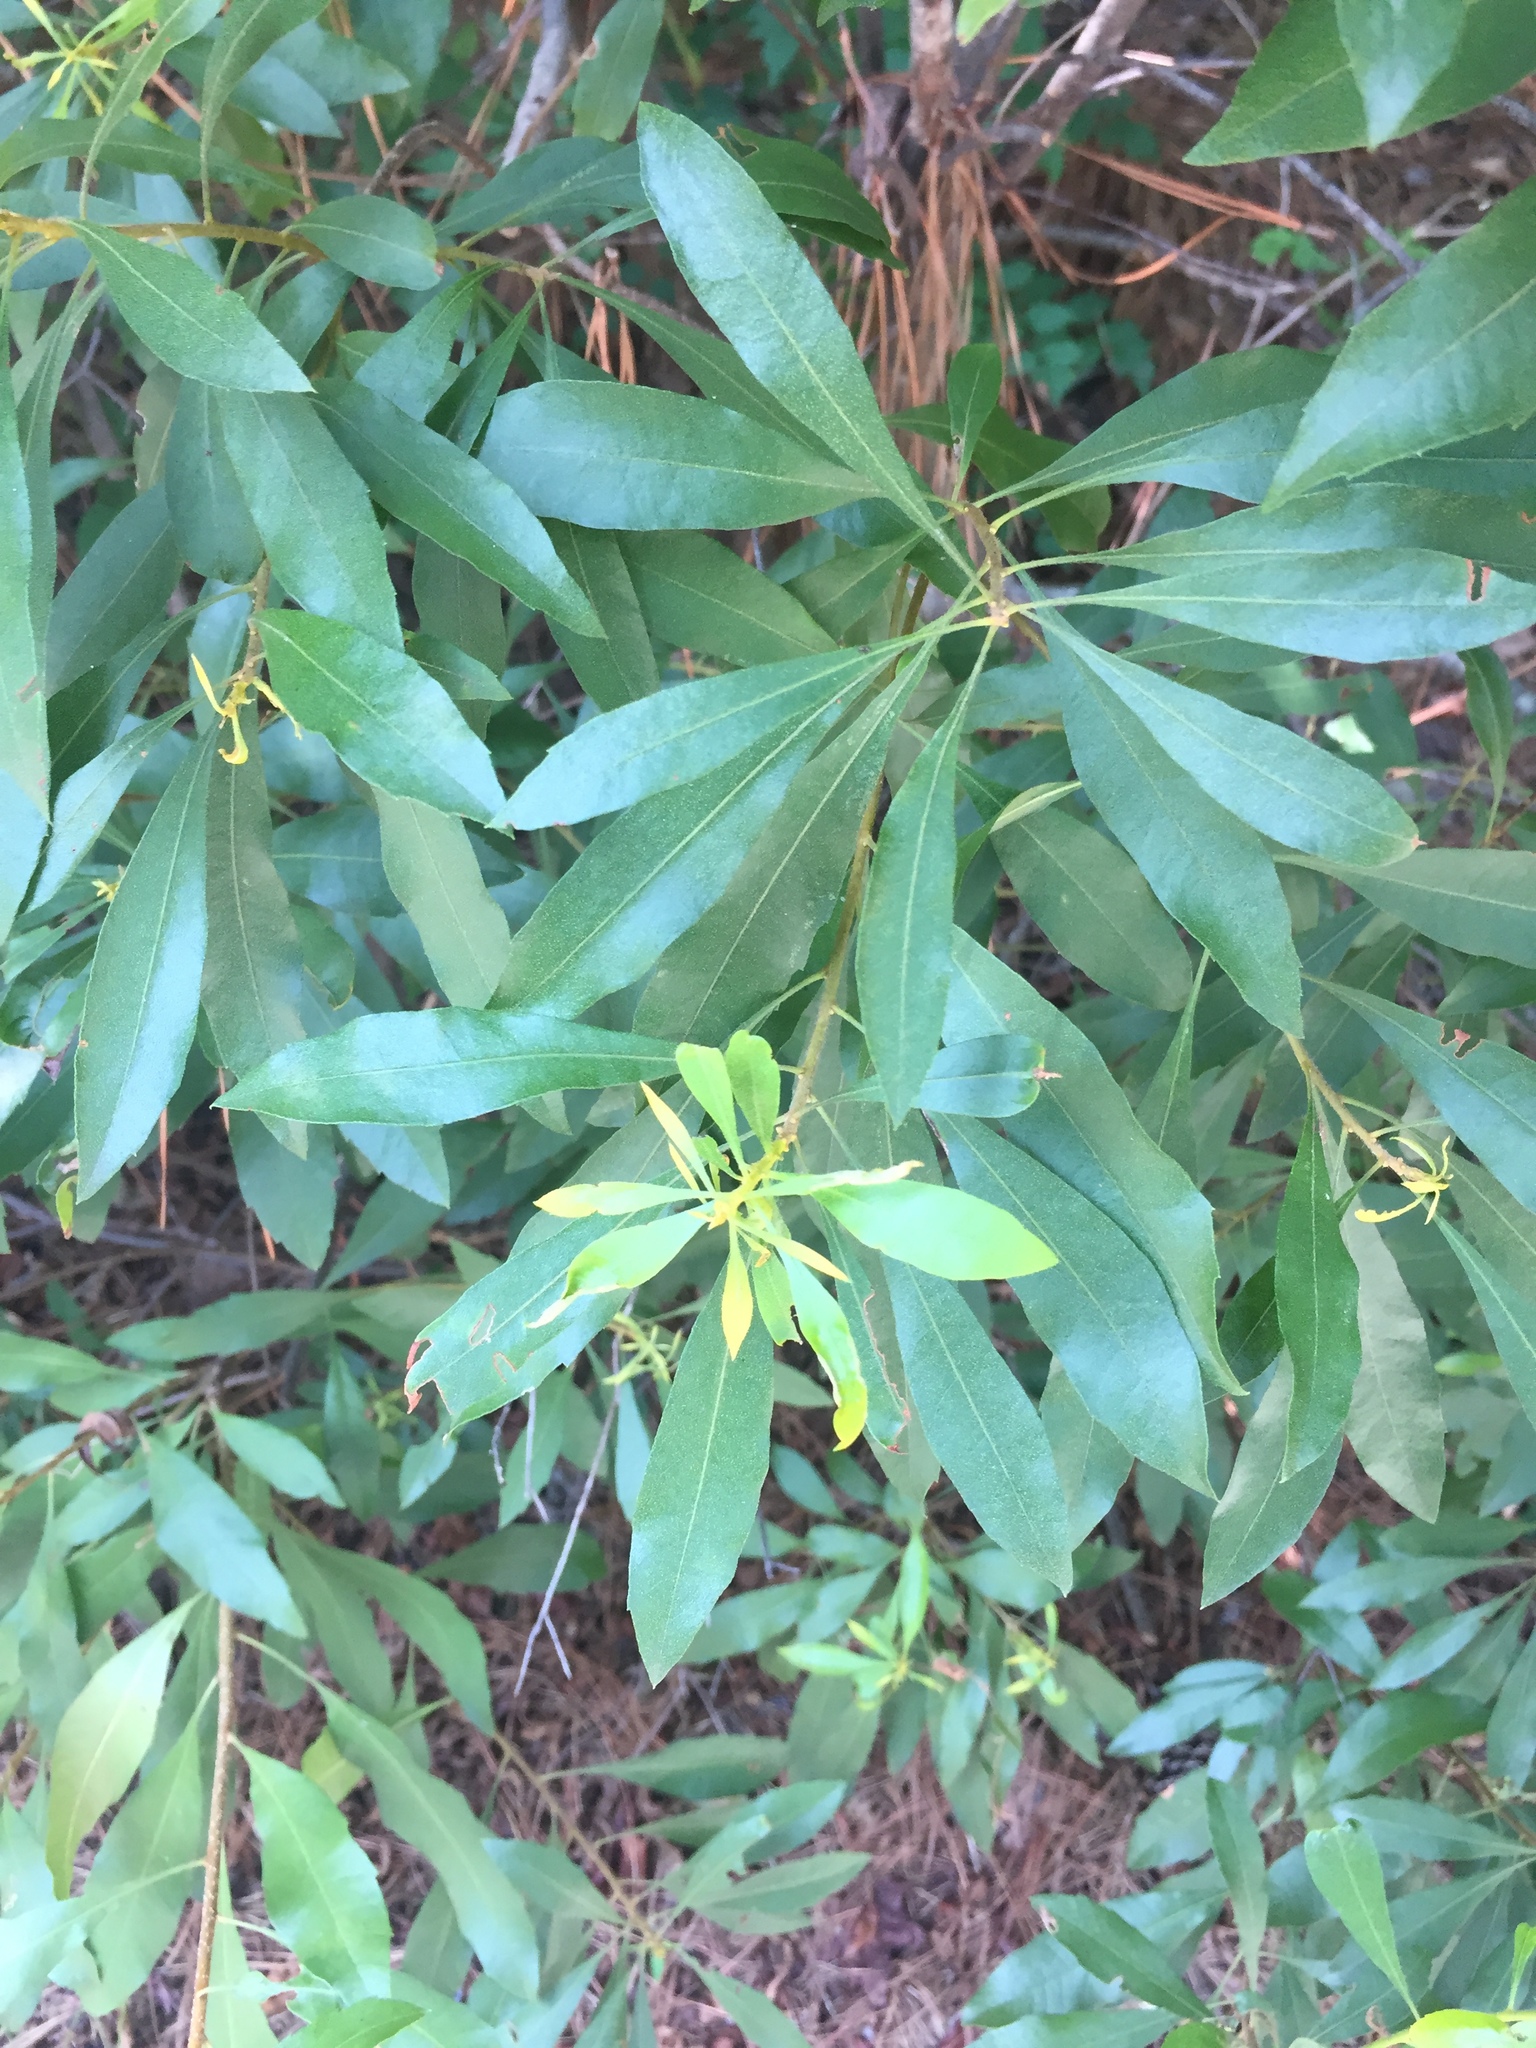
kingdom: Plantae
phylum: Tracheophyta
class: Magnoliopsida
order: Fagales
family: Myricaceae
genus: Morella
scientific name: Morella cerifera
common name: Wax myrtle
